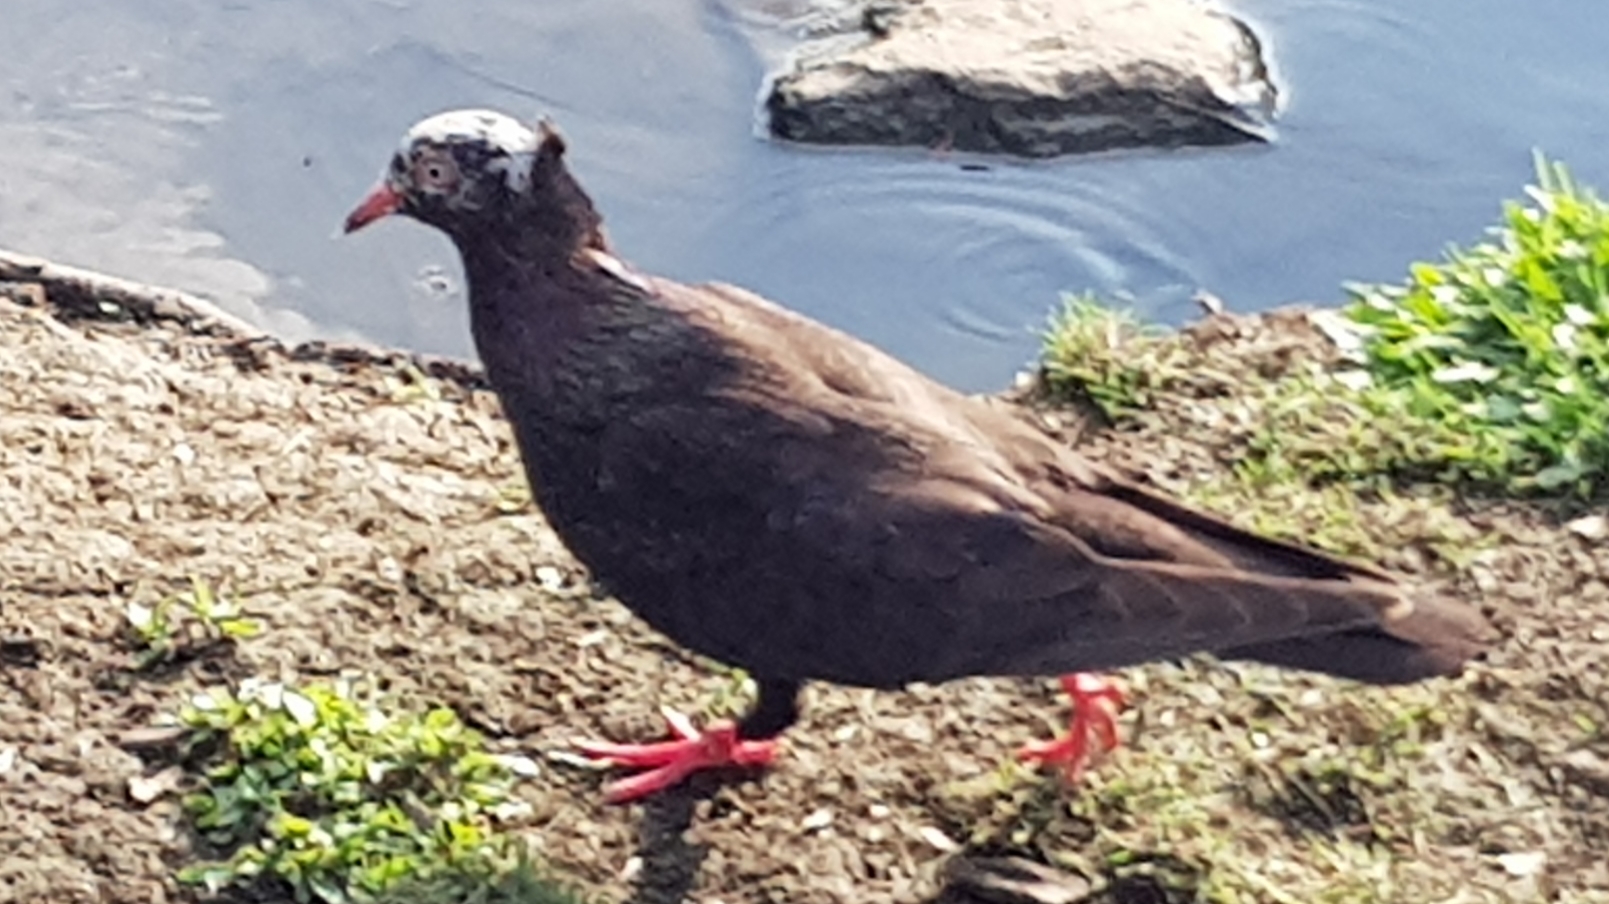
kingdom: Animalia
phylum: Chordata
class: Aves
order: Columbiformes
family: Columbidae
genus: Columba
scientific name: Columba livia
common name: Rock pigeon
